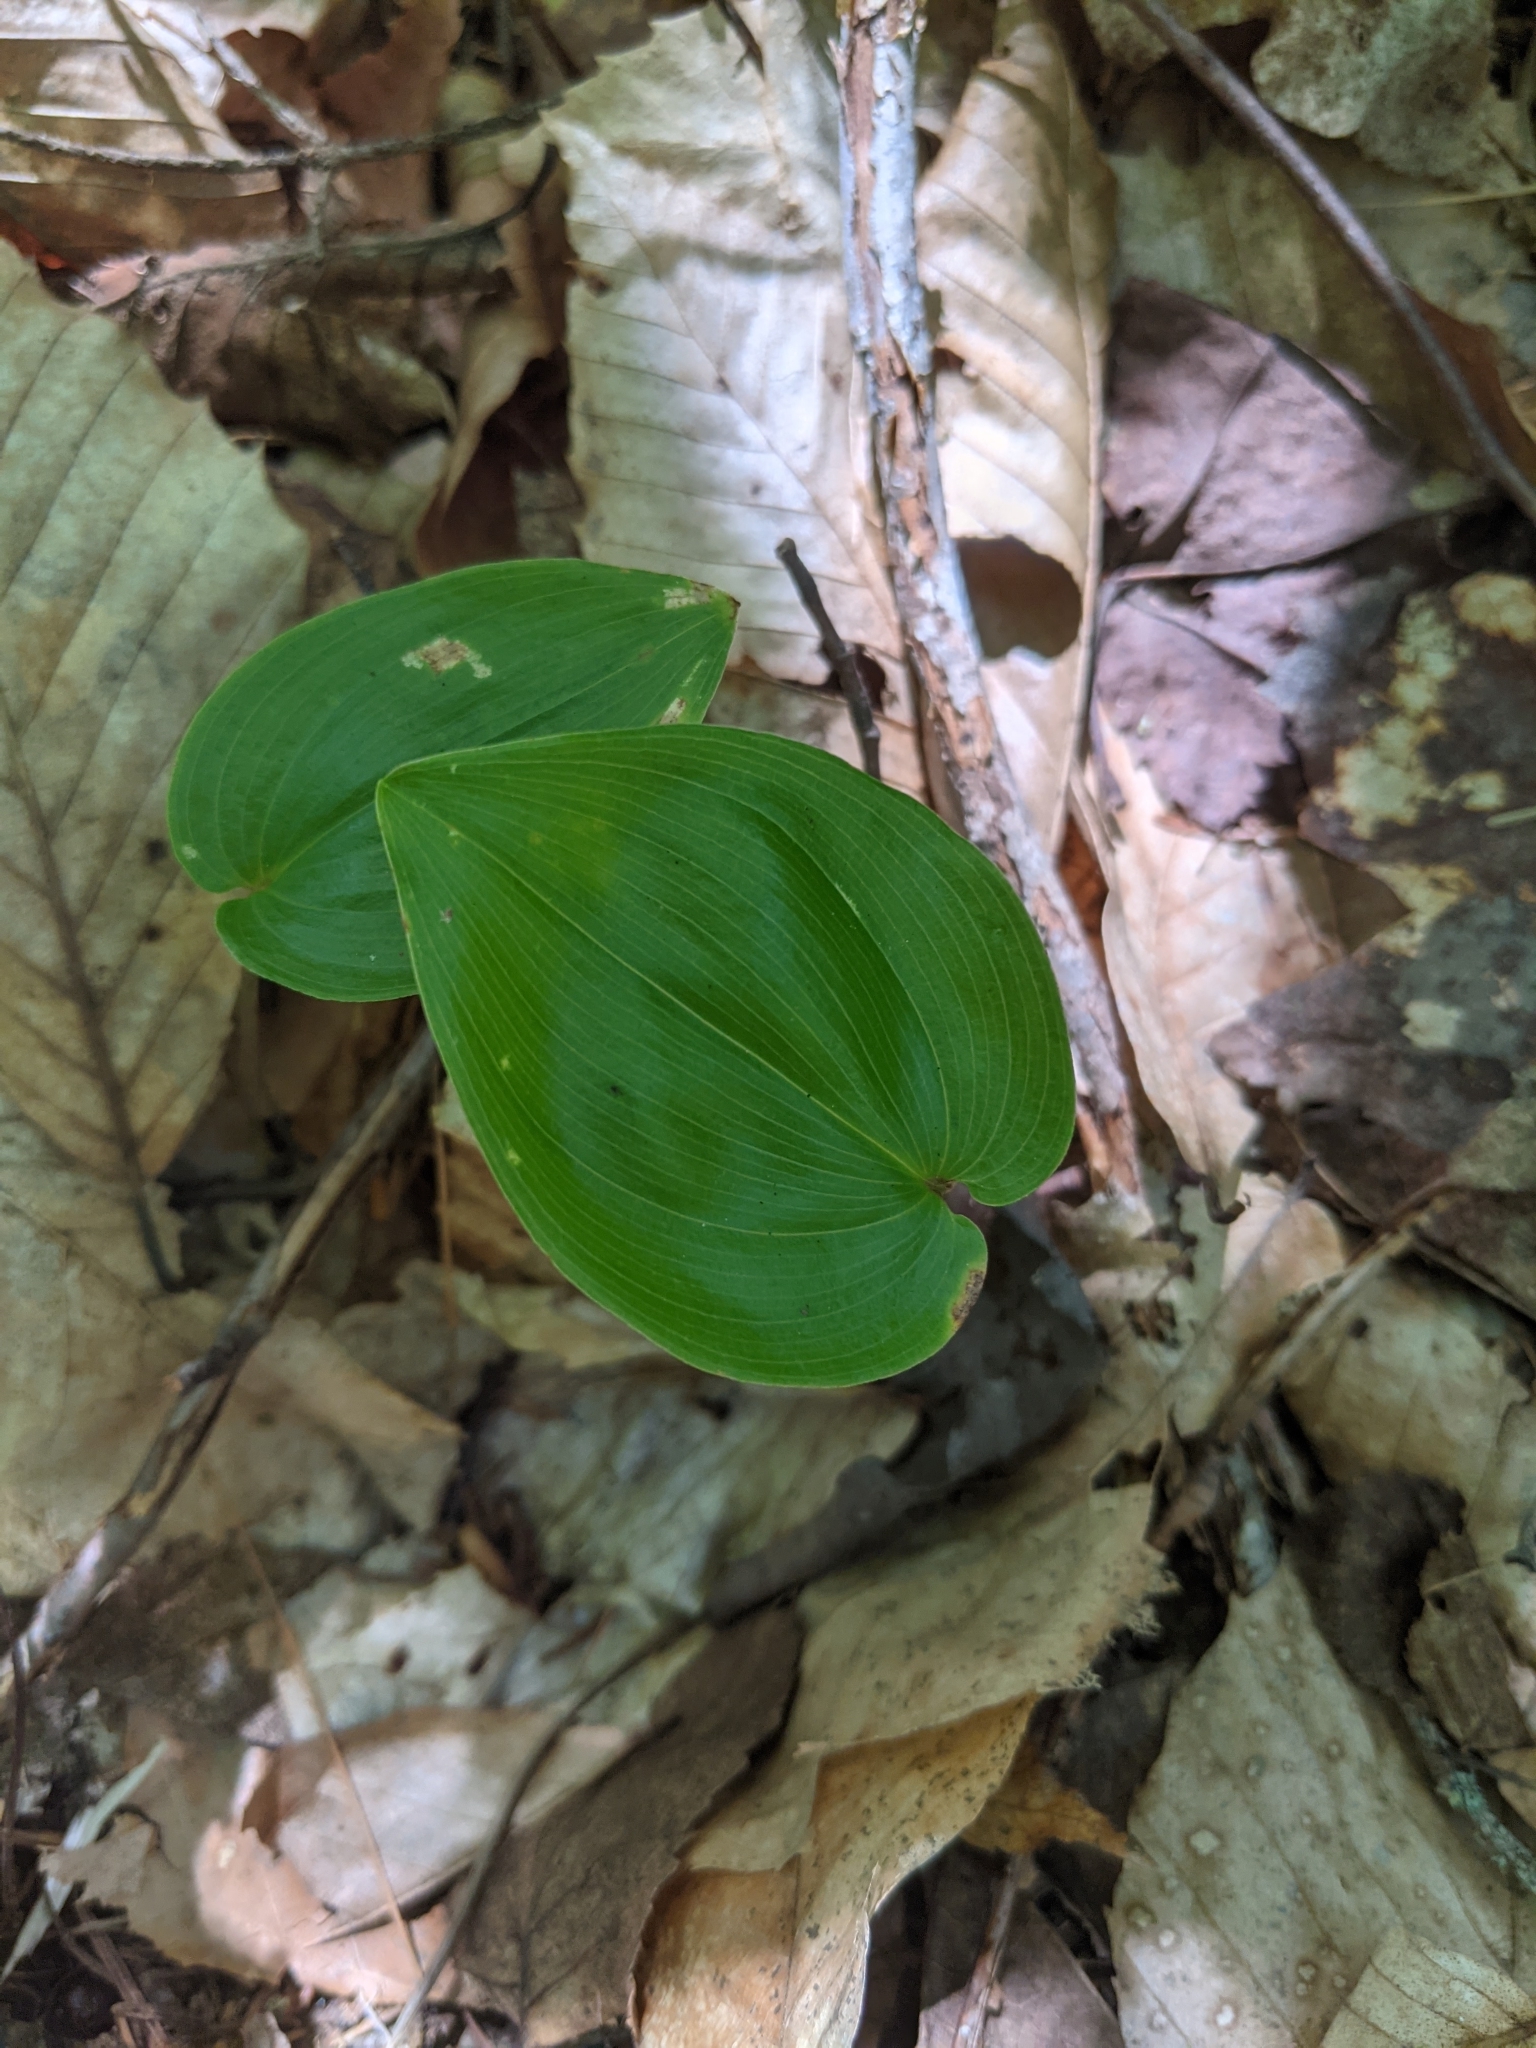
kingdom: Plantae
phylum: Tracheophyta
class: Liliopsida
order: Asparagales
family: Asparagaceae
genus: Maianthemum
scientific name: Maianthemum canadense
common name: False lily-of-the-valley
